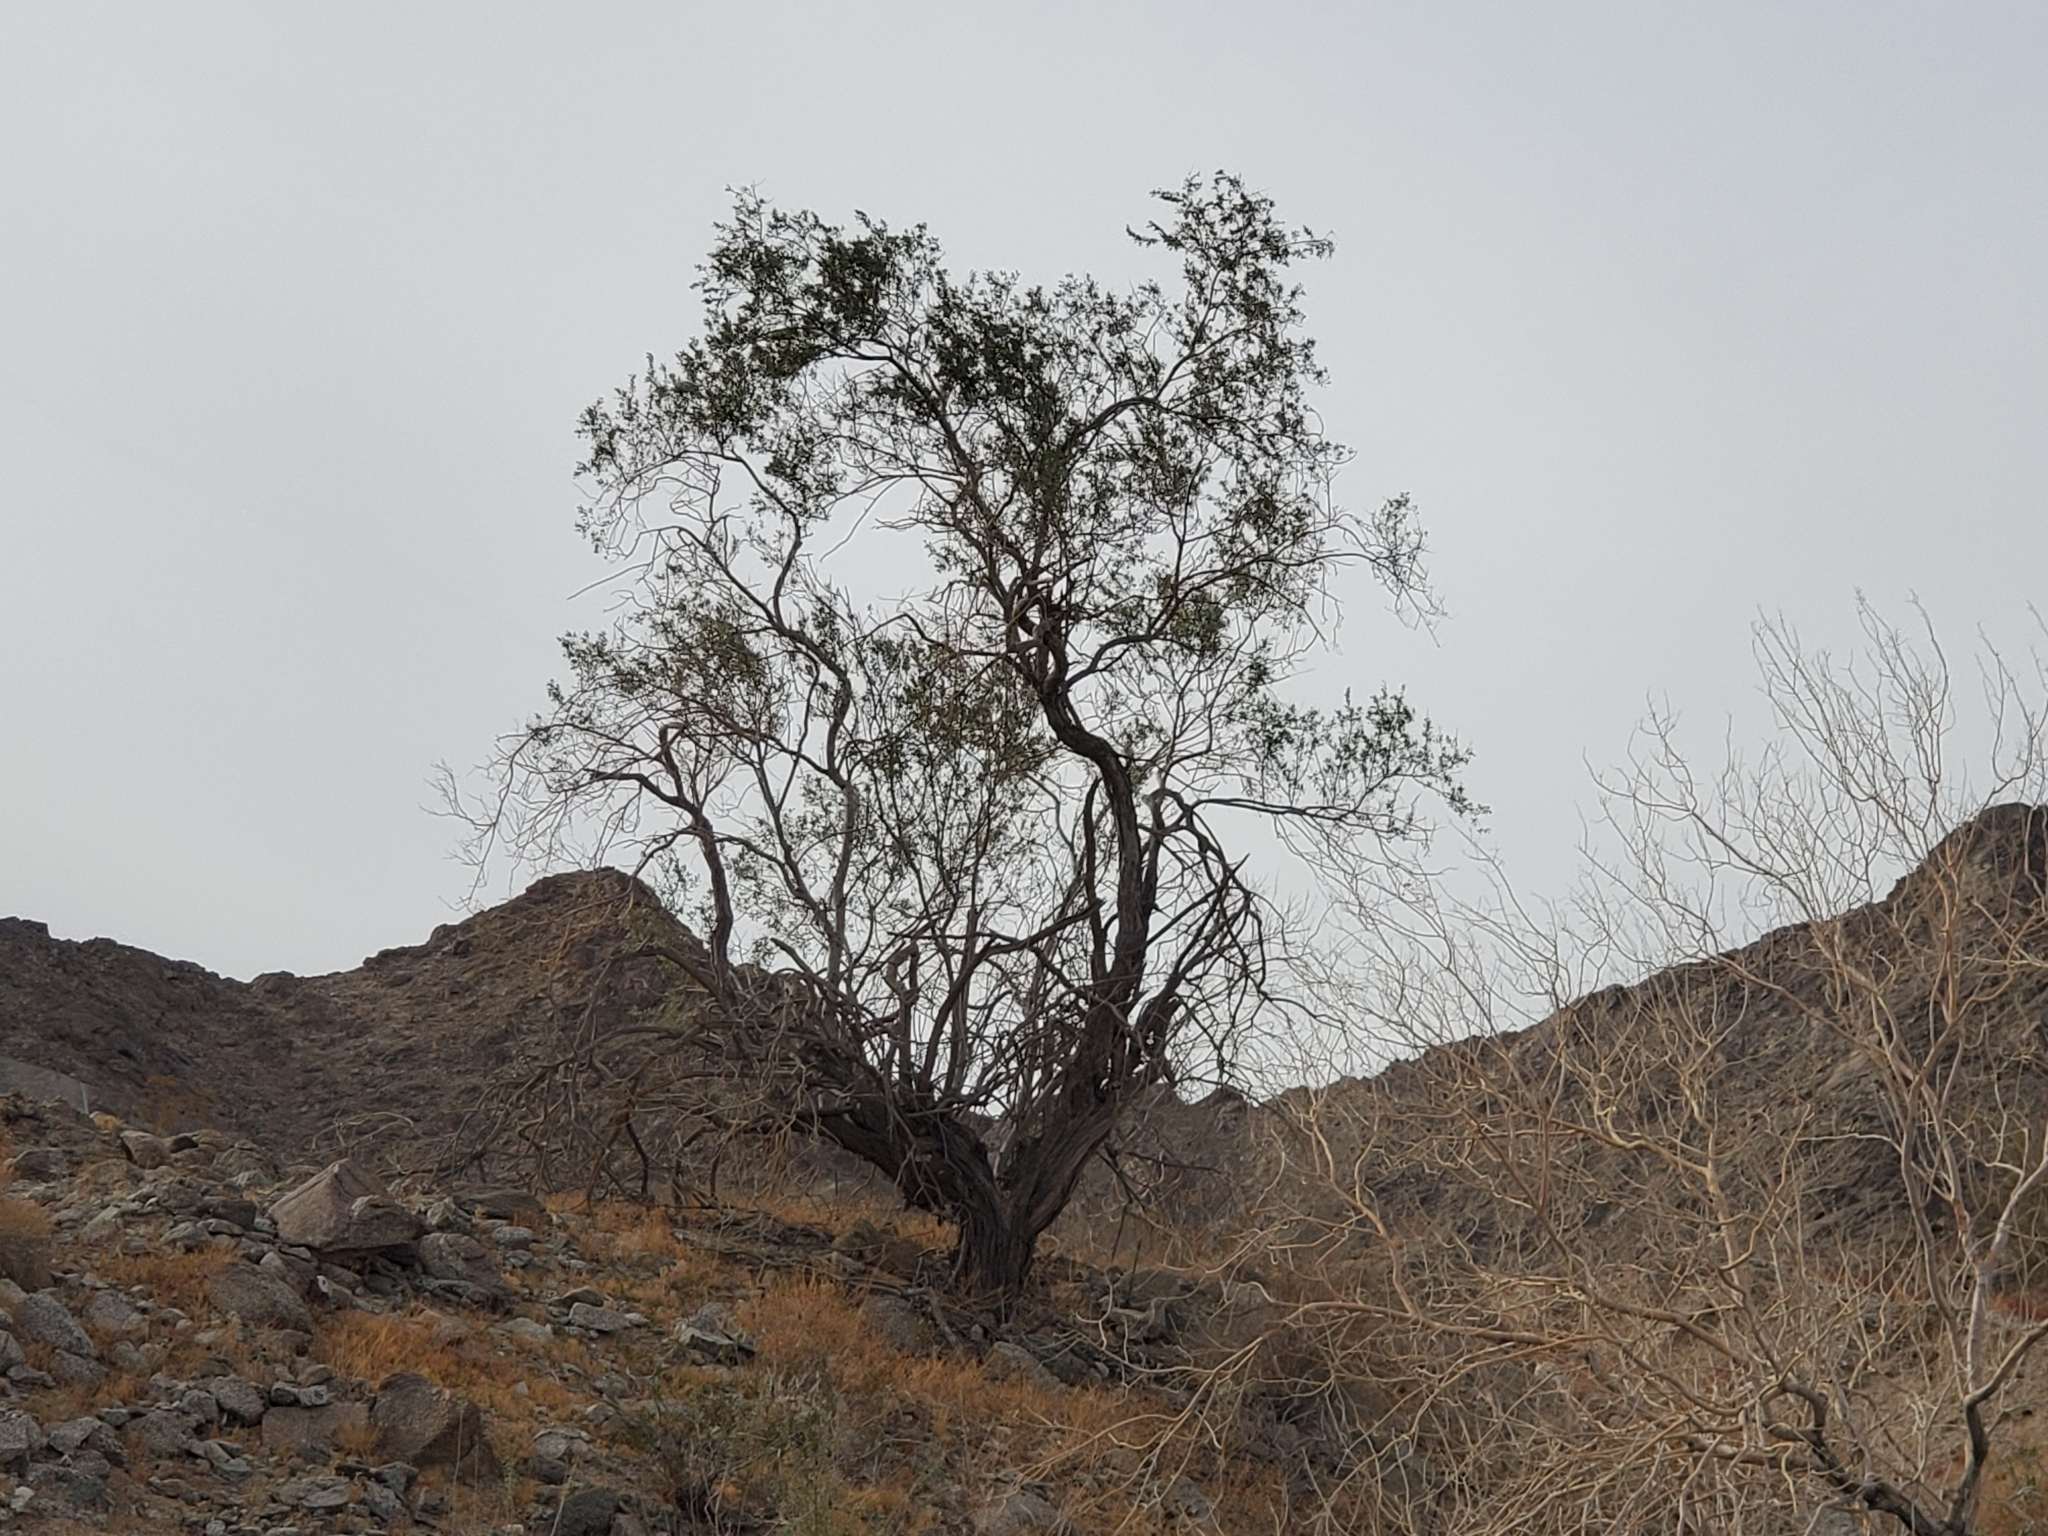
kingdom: Plantae
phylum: Tracheophyta
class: Magnoliopsida
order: Fabales
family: Fabaceae
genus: Olneya
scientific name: Olneya tesota
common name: Desert ironwood
